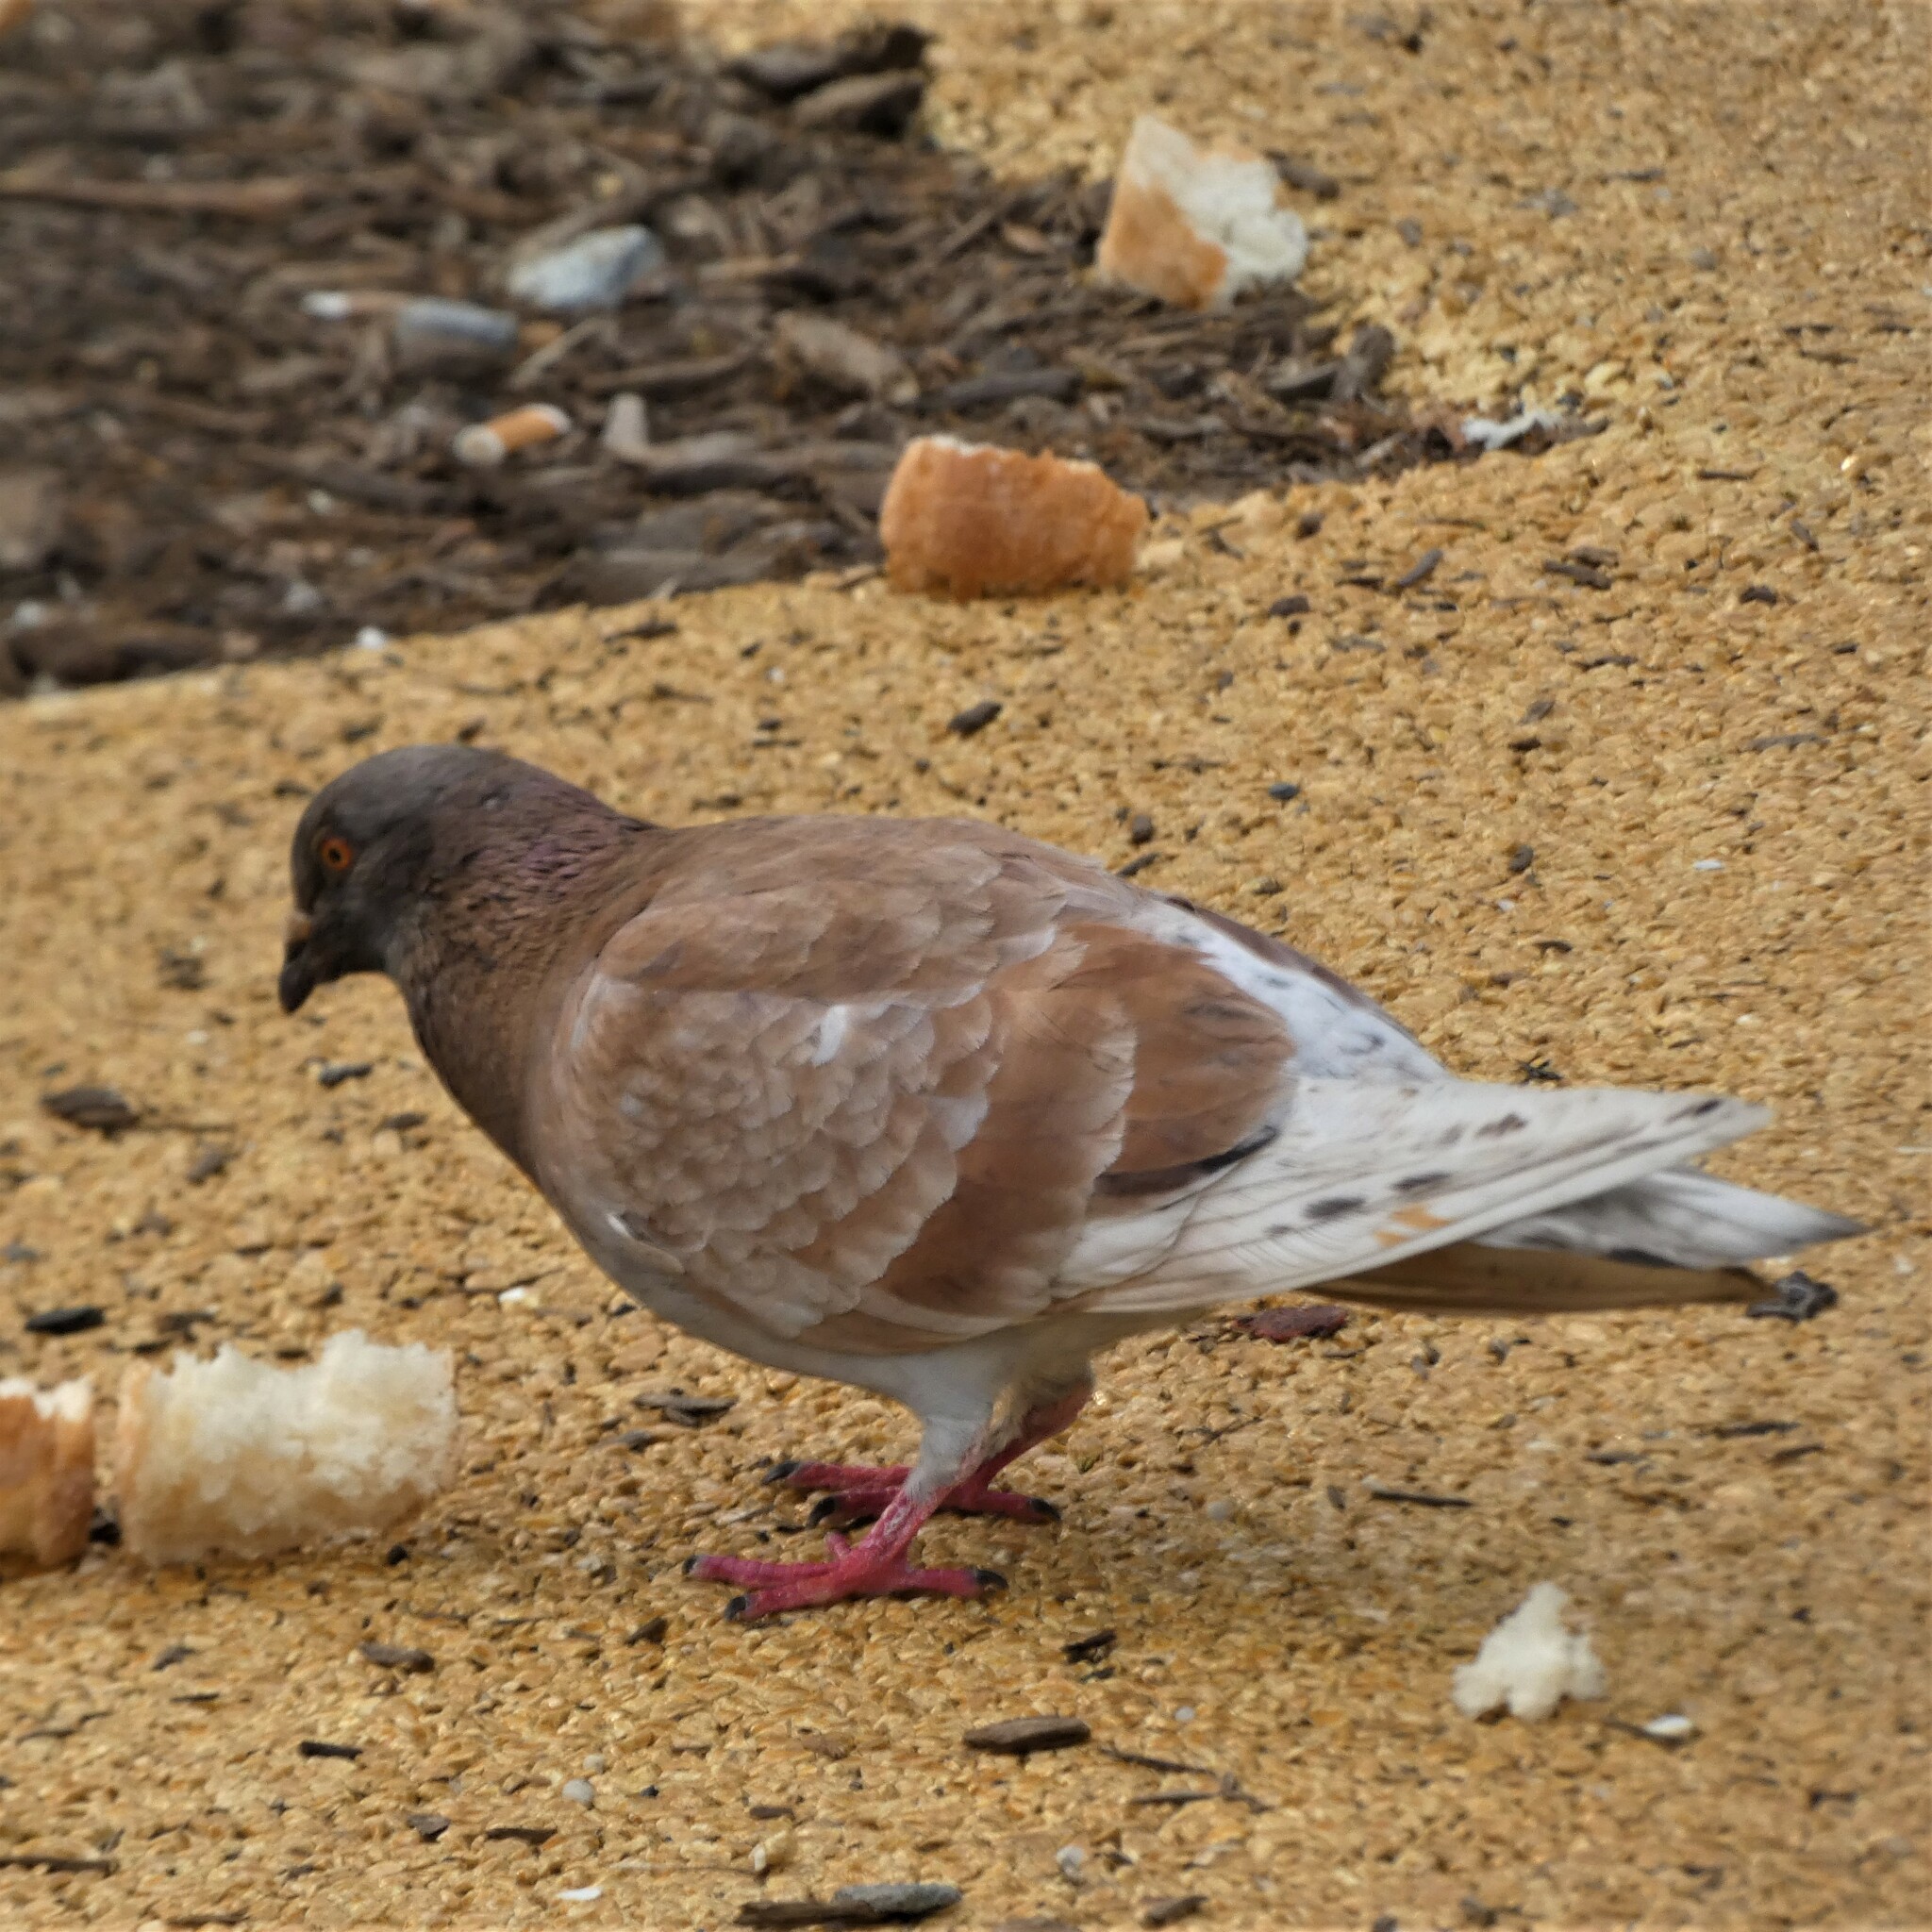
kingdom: Animalia
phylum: Chordata
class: Aves
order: Columbiformes
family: Columbidae
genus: Columba
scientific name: Columba livia
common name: Rock pigeon
